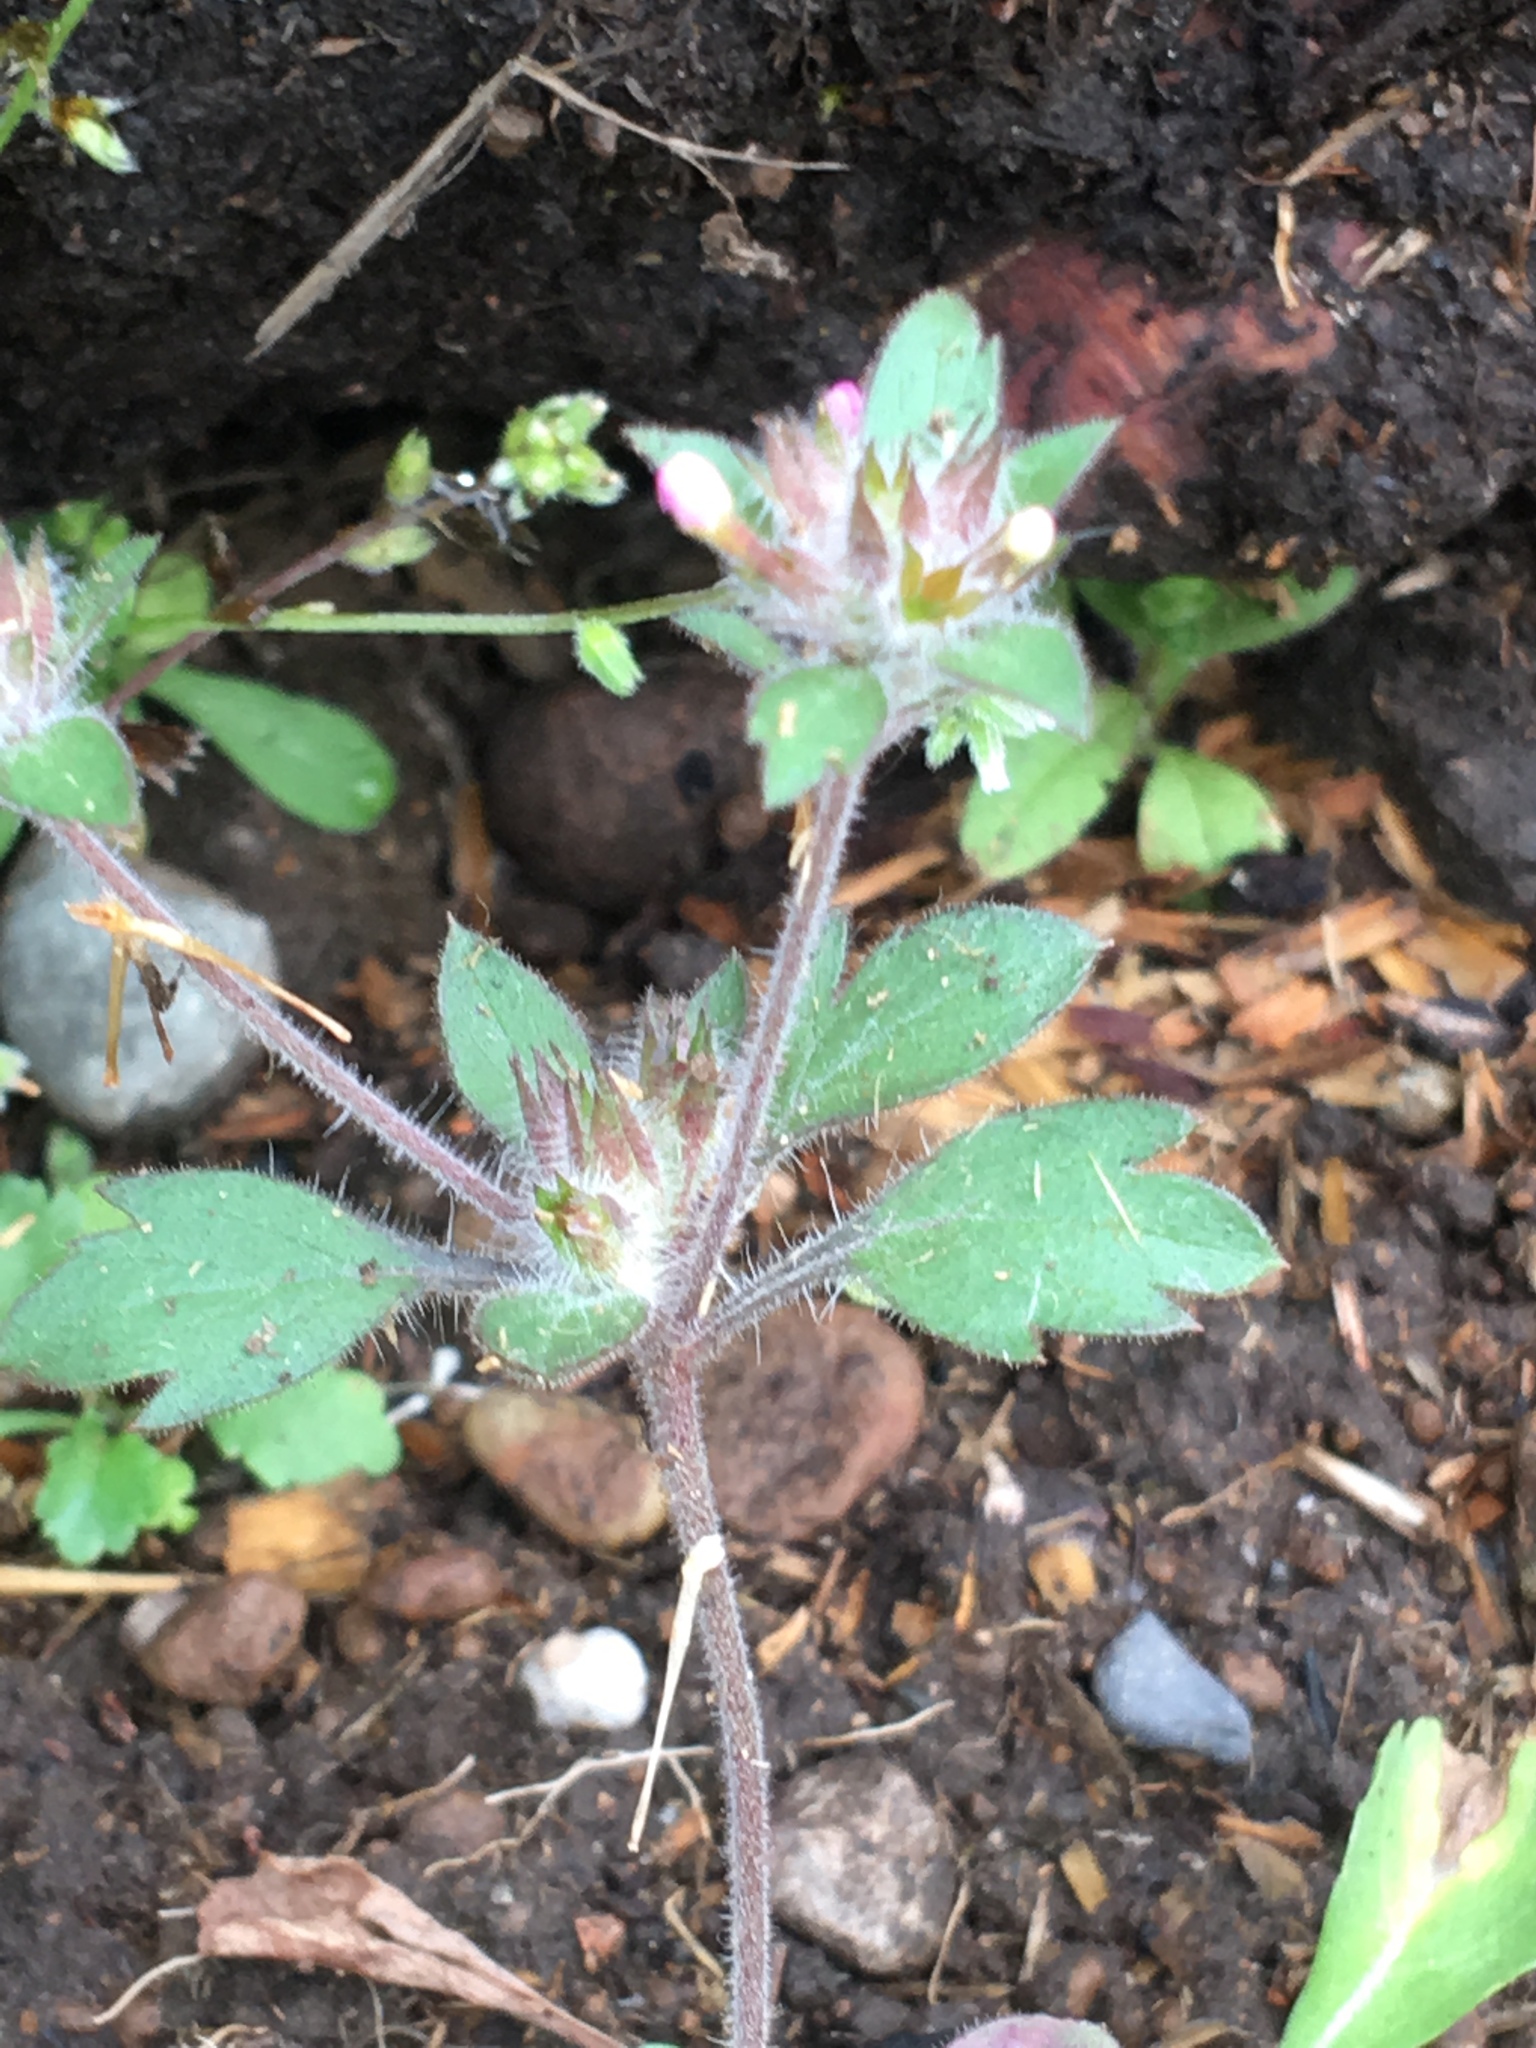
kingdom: Plantae
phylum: Tracheophyta
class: Magnoliopsida
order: Ericales
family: Polemoniaceae
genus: Collomia
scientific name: Collomia heterophylla
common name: Variable-leaved collomia
